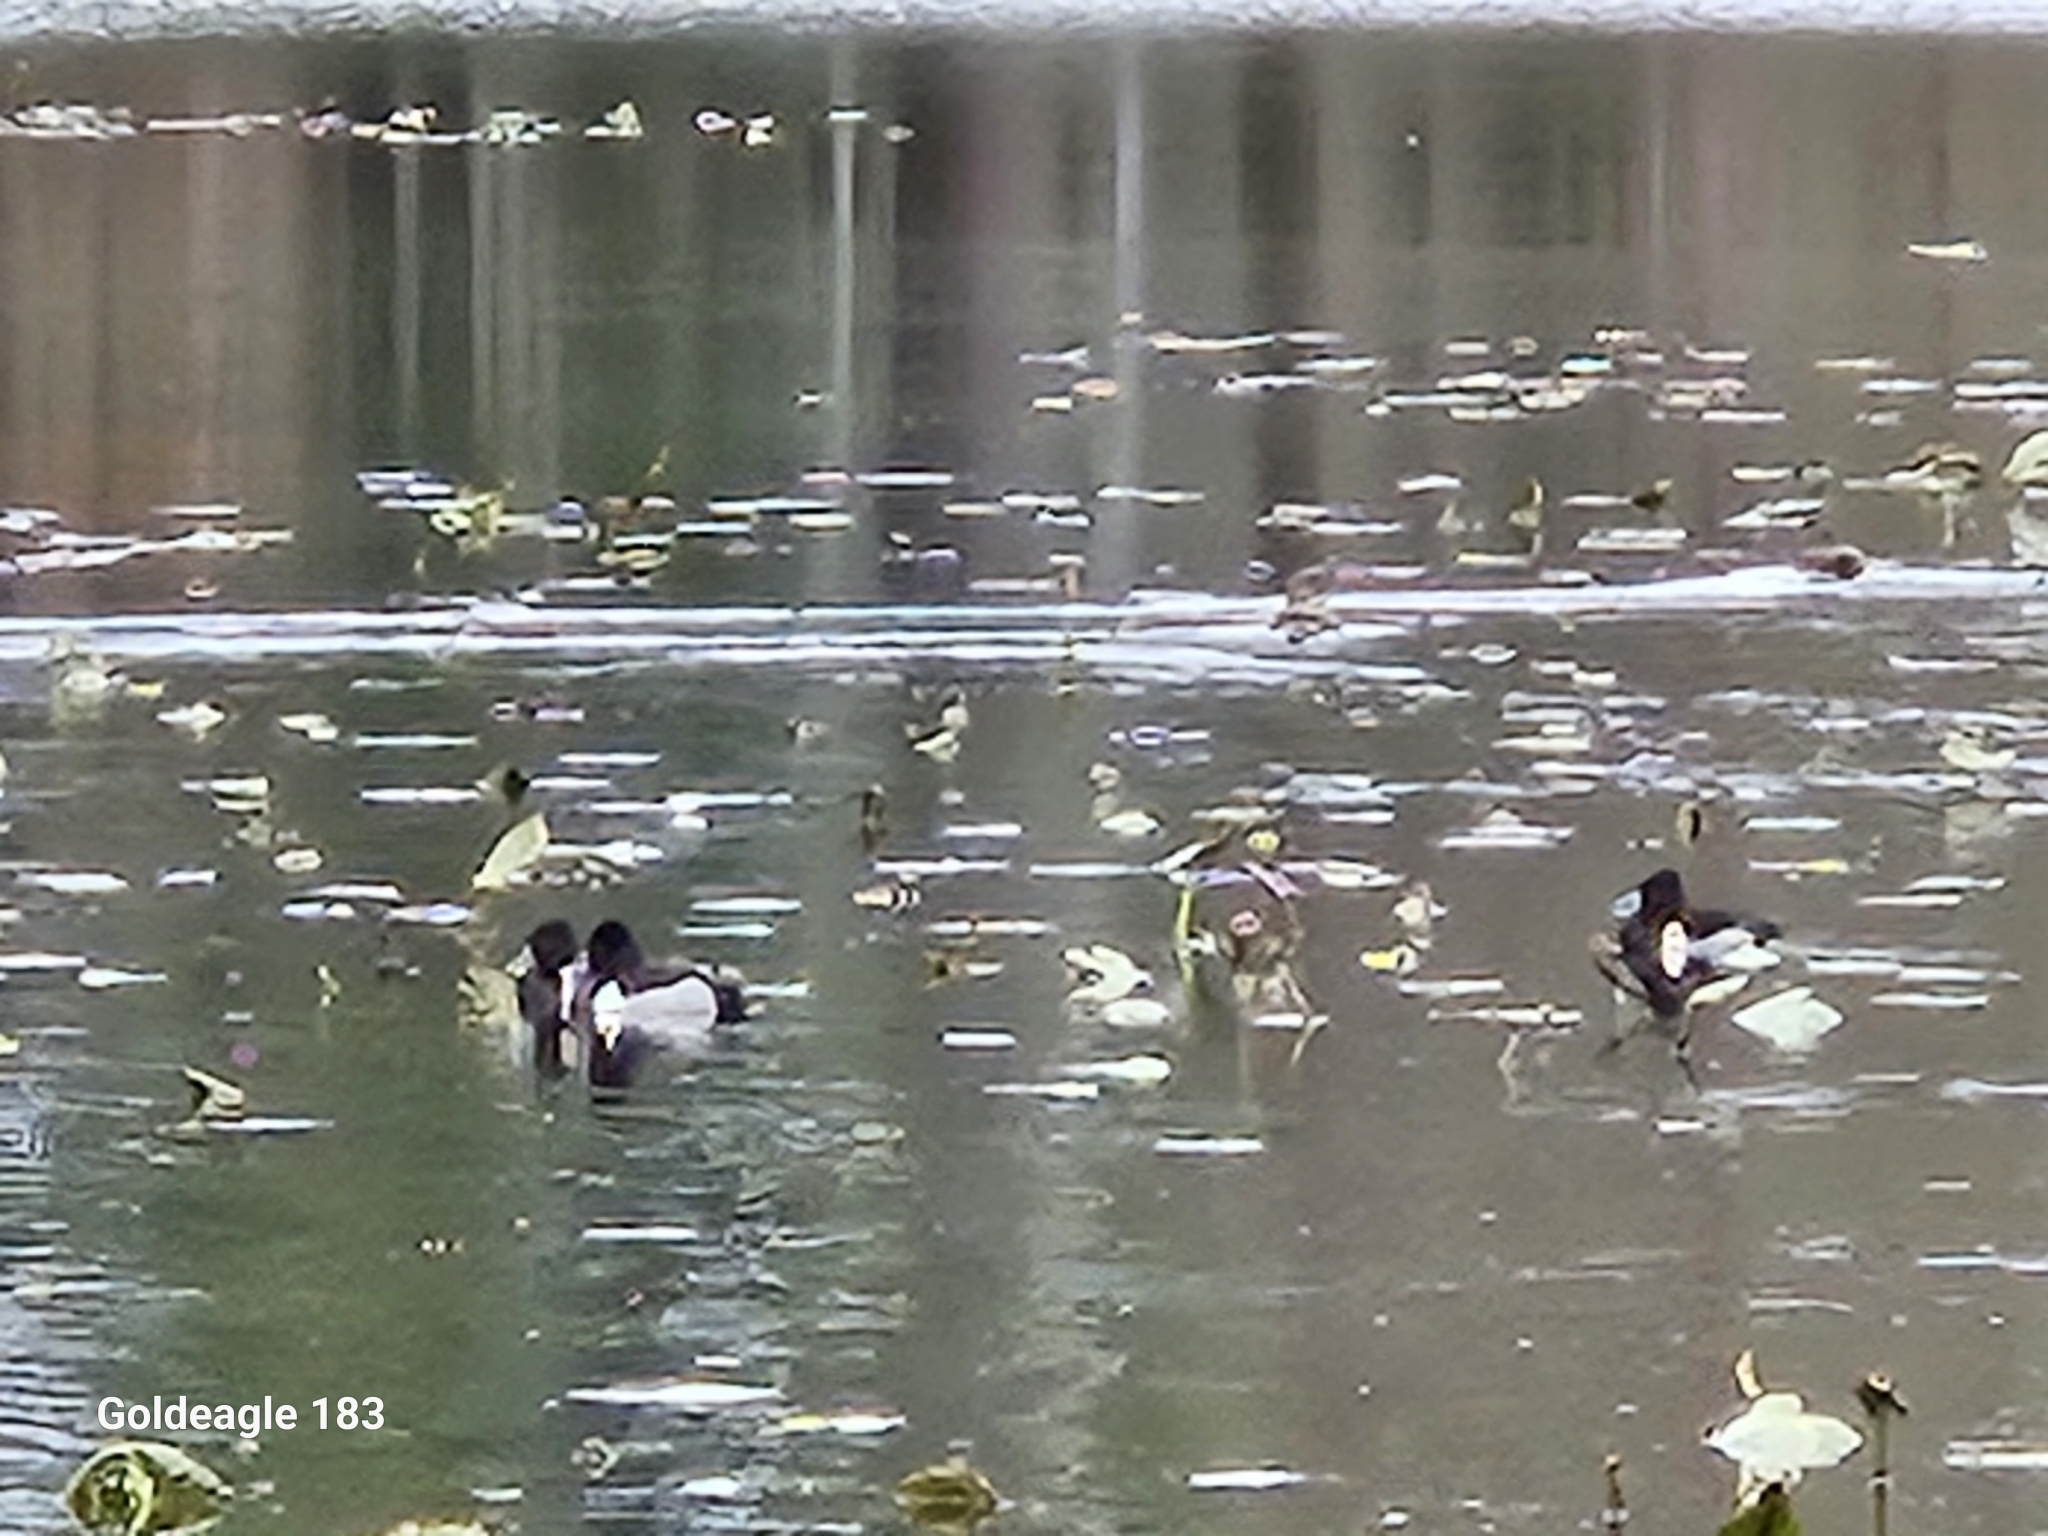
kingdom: Animalia
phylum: Chordata
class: Aves
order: Anseriformes
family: Anatidae
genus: Aythya
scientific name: Aythya collaris
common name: Ring-necked duck
